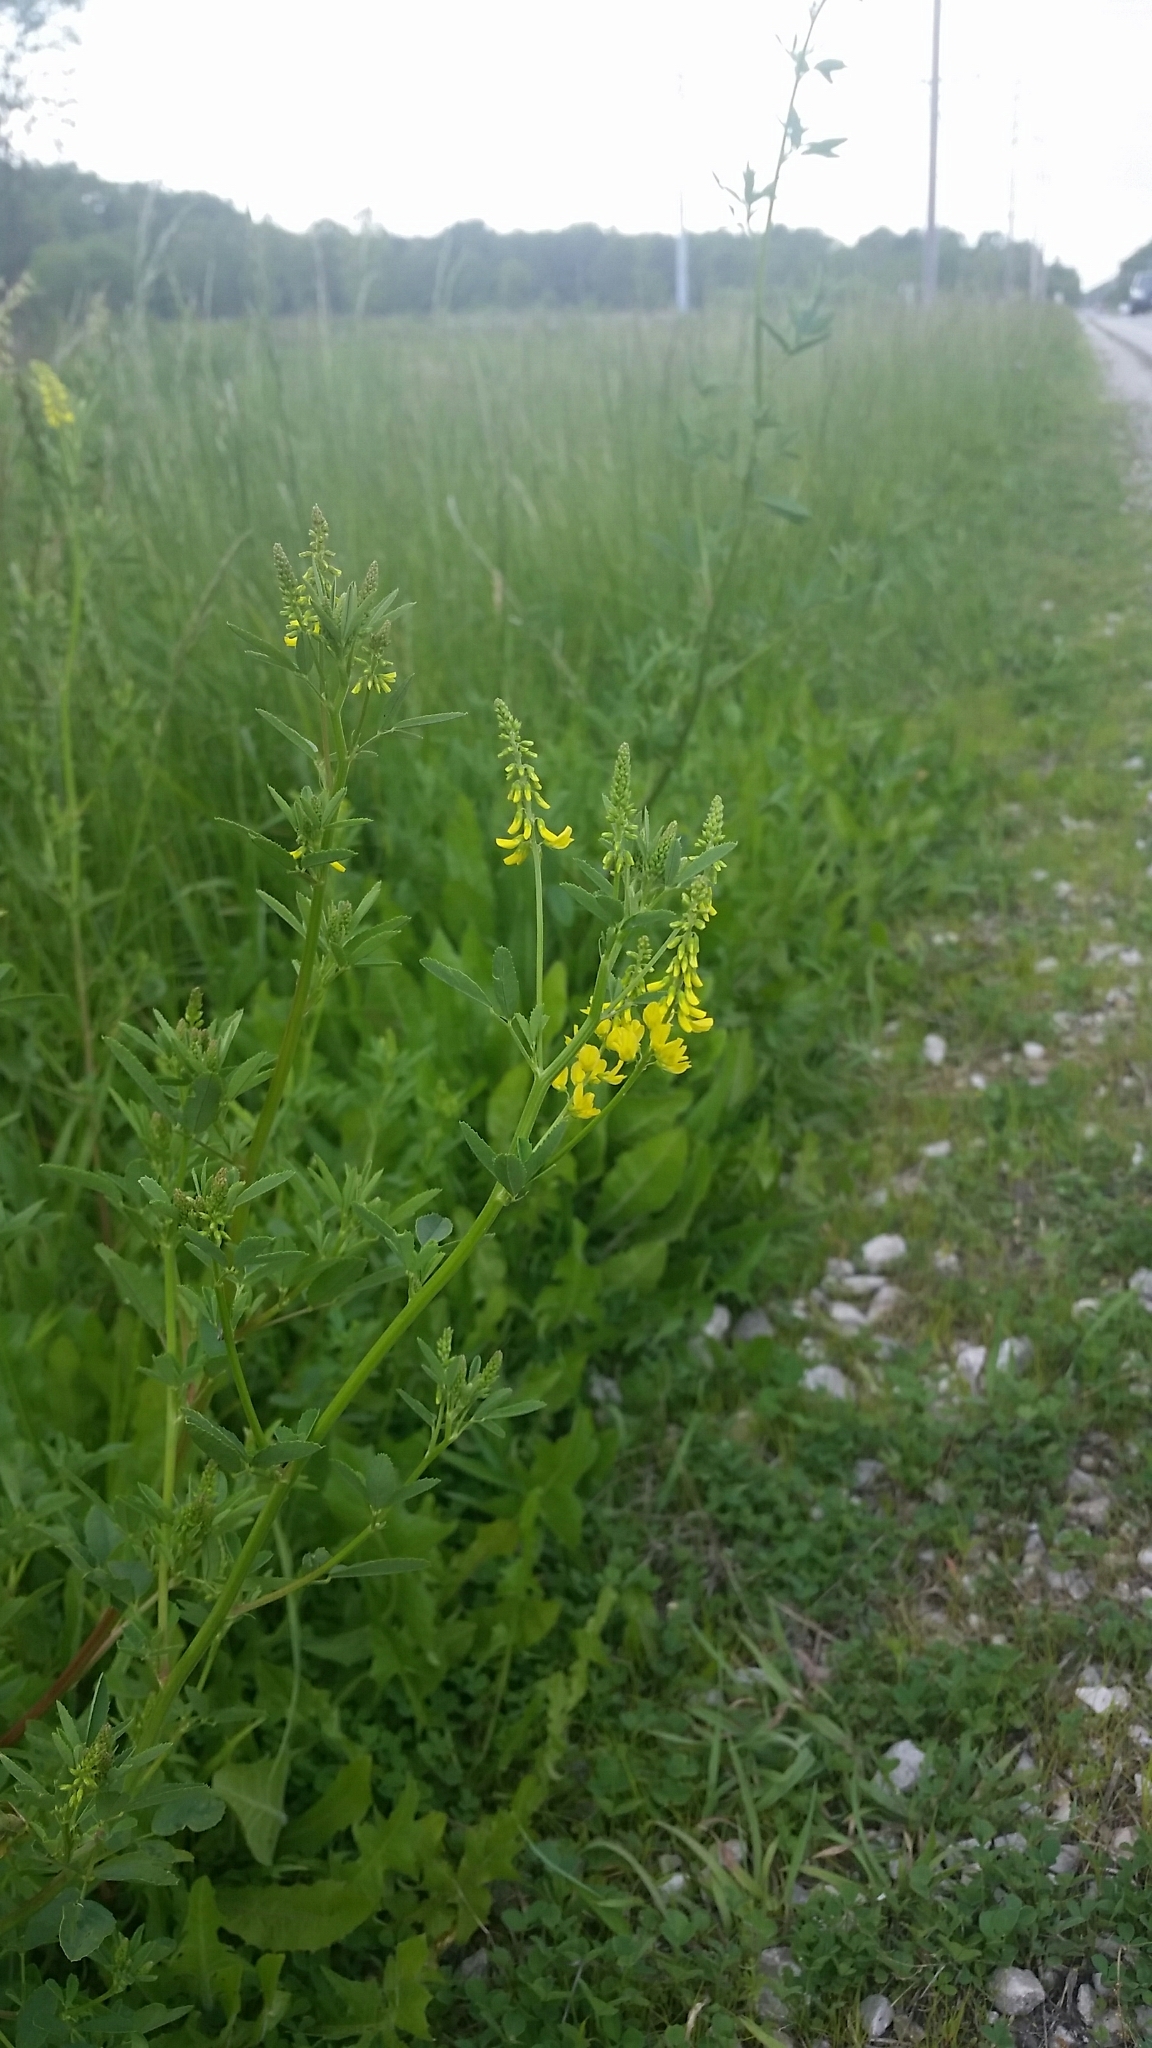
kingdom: Plantae
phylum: Tracheophyta
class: Magnoliopsida
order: Fabales
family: Fabaceae
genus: Melilotus
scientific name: Melilotus officinalis
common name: Sweetclover
